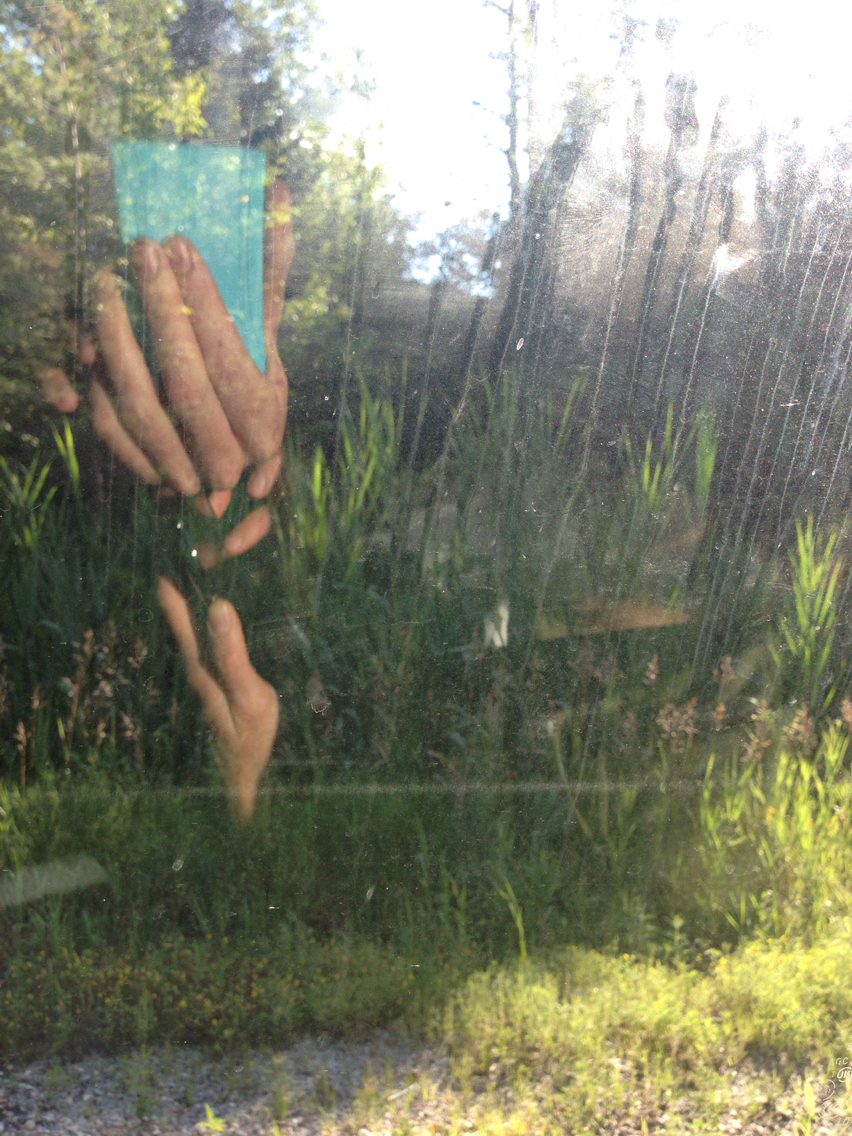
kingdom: Plantae
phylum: Tracheophyta
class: Liliopsida
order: Poales
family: Poaceae
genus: Phragmites
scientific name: Phragmites australis
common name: Common reed
